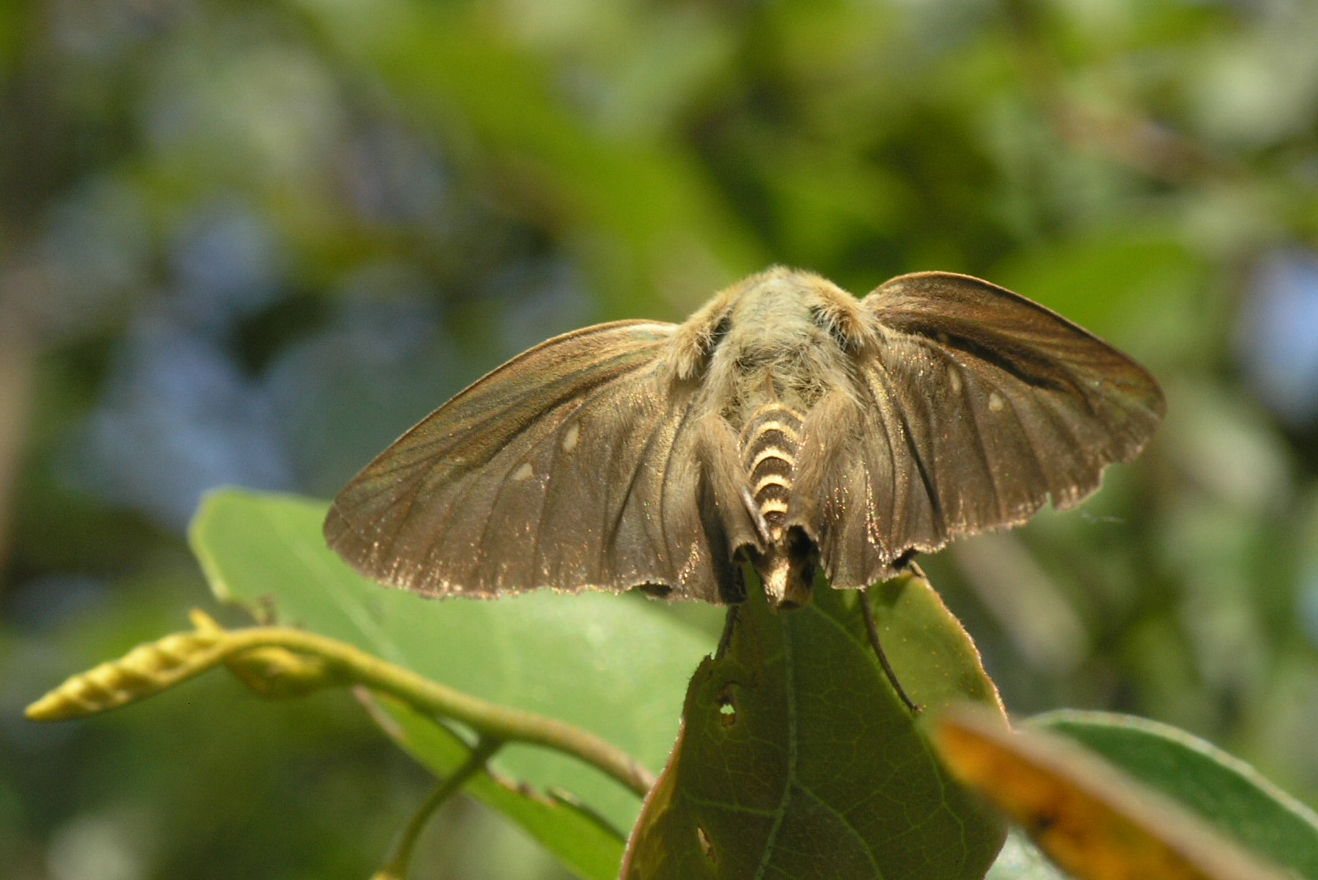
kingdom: Animalia
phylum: Arthropoda
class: Insecta
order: Lepidoptera
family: Hesperiidae
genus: Badamia
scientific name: Badamia exclamationis
